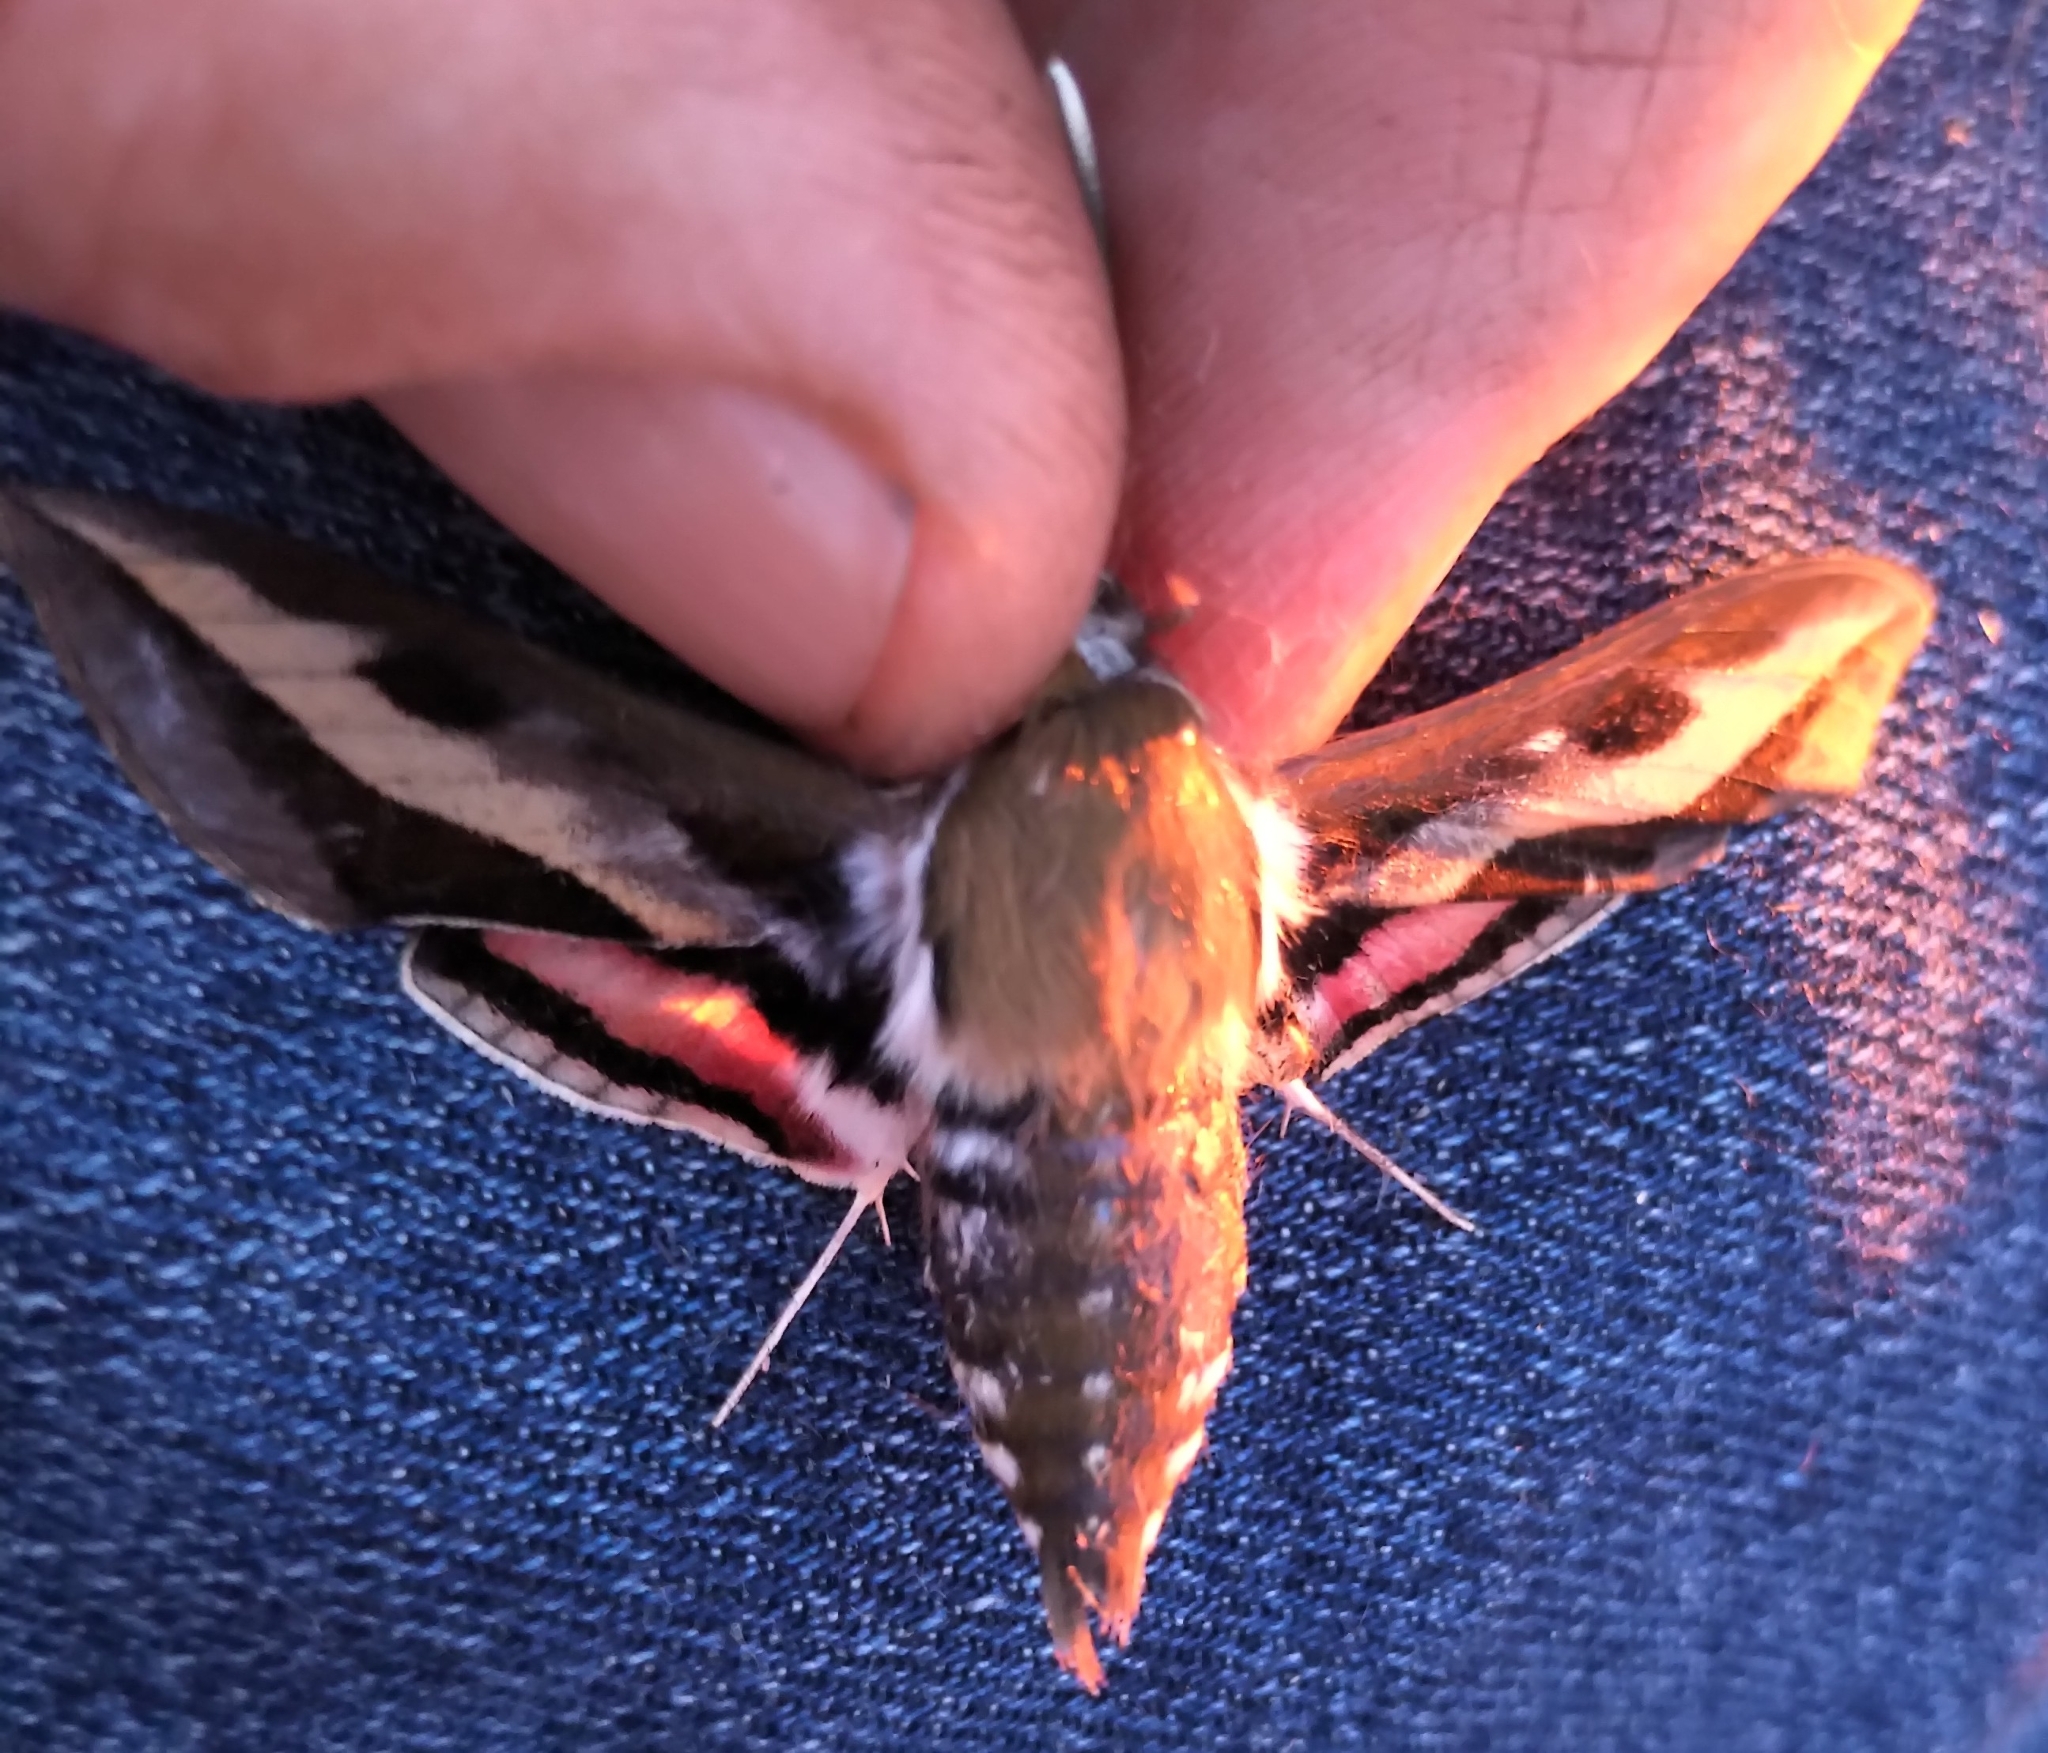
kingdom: Animalia
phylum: Arthropoda
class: Insecta
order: Lepidoptera
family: Sphingidae
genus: Hyles
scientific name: Hyles gallii
